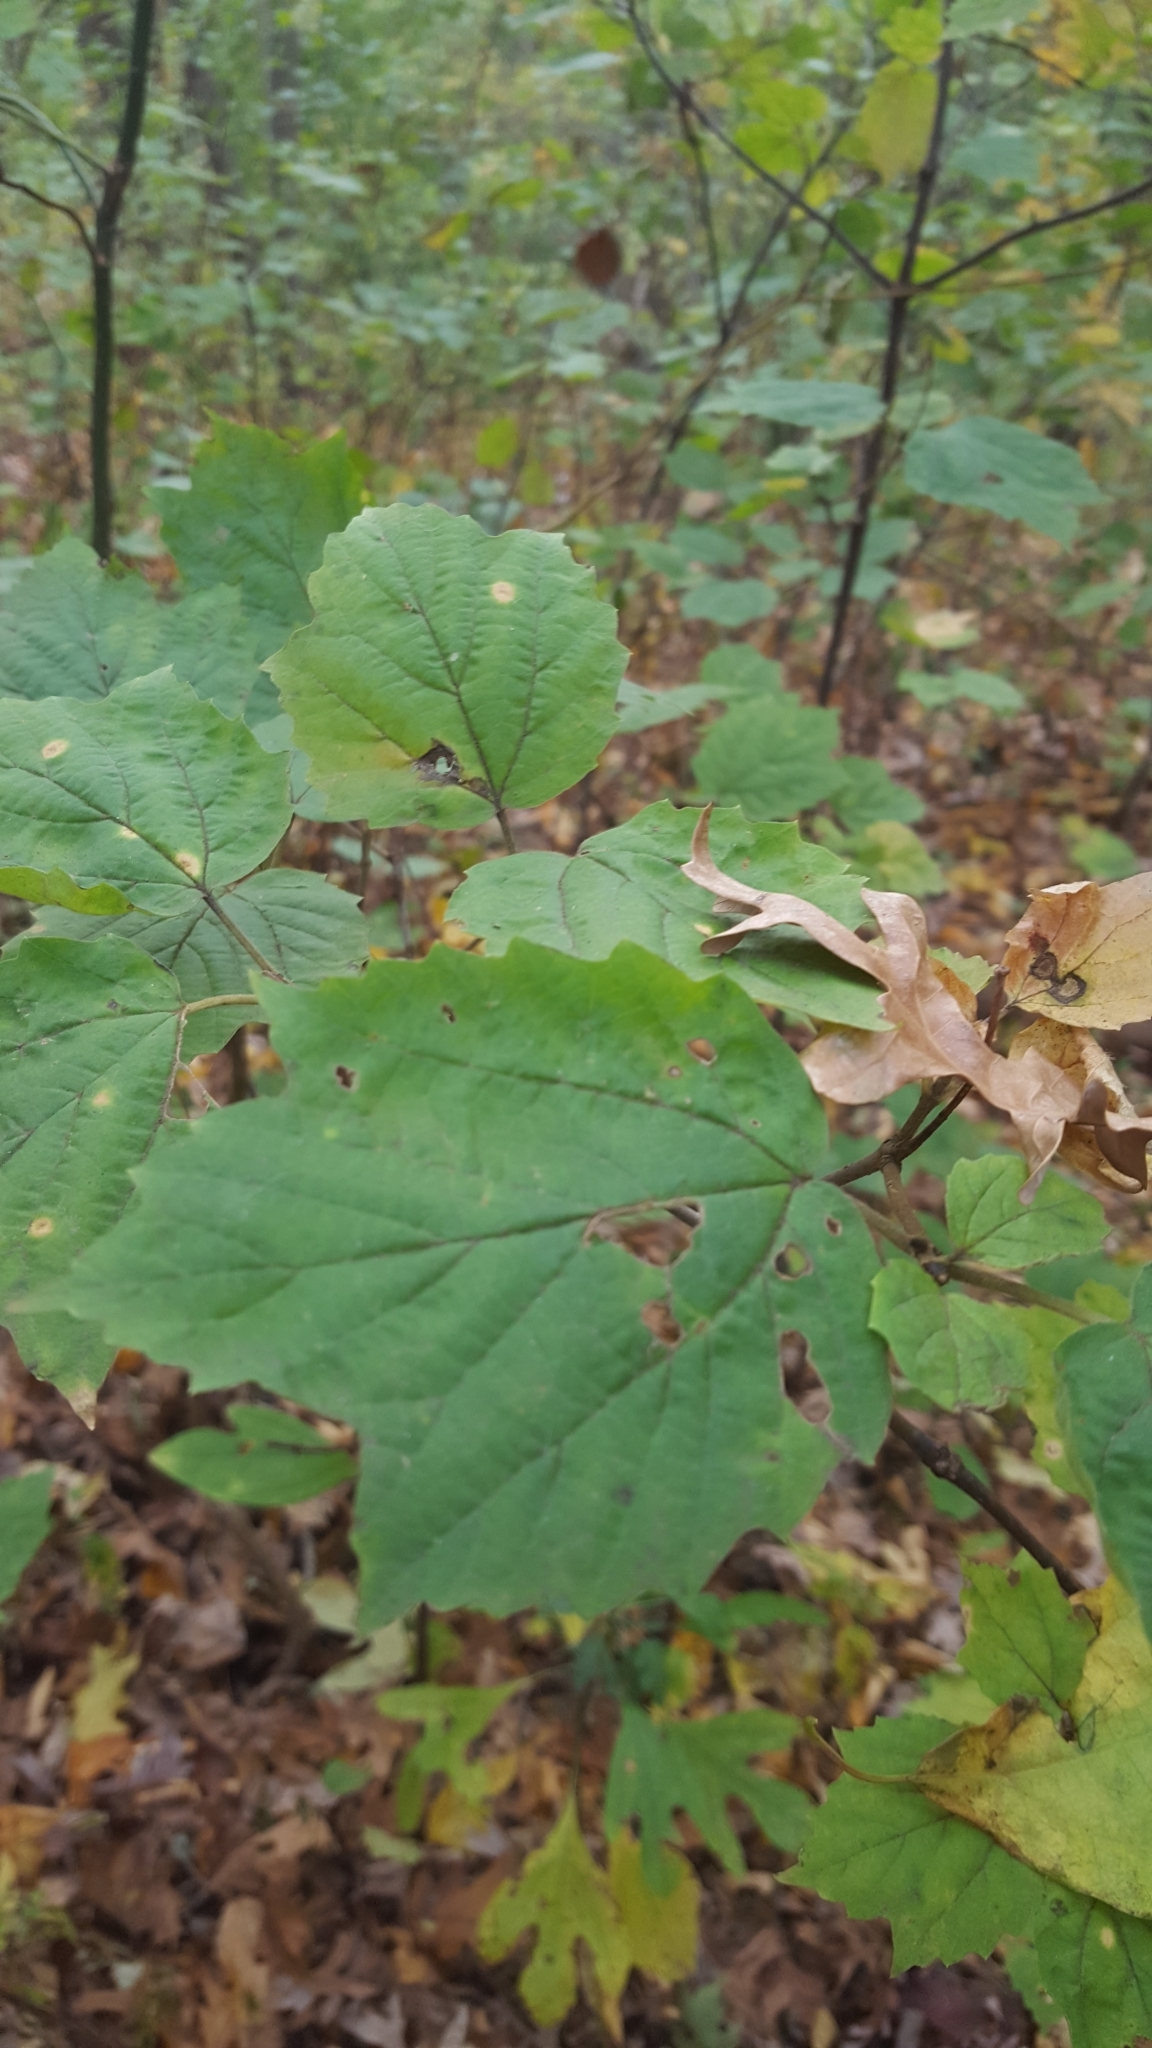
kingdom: Plantae
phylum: Tracheophyta
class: Magnoliopsida
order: Dipsacales
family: Viburnaceae
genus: Viburnum
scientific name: Viburnum acerifolium
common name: Dockmackie
